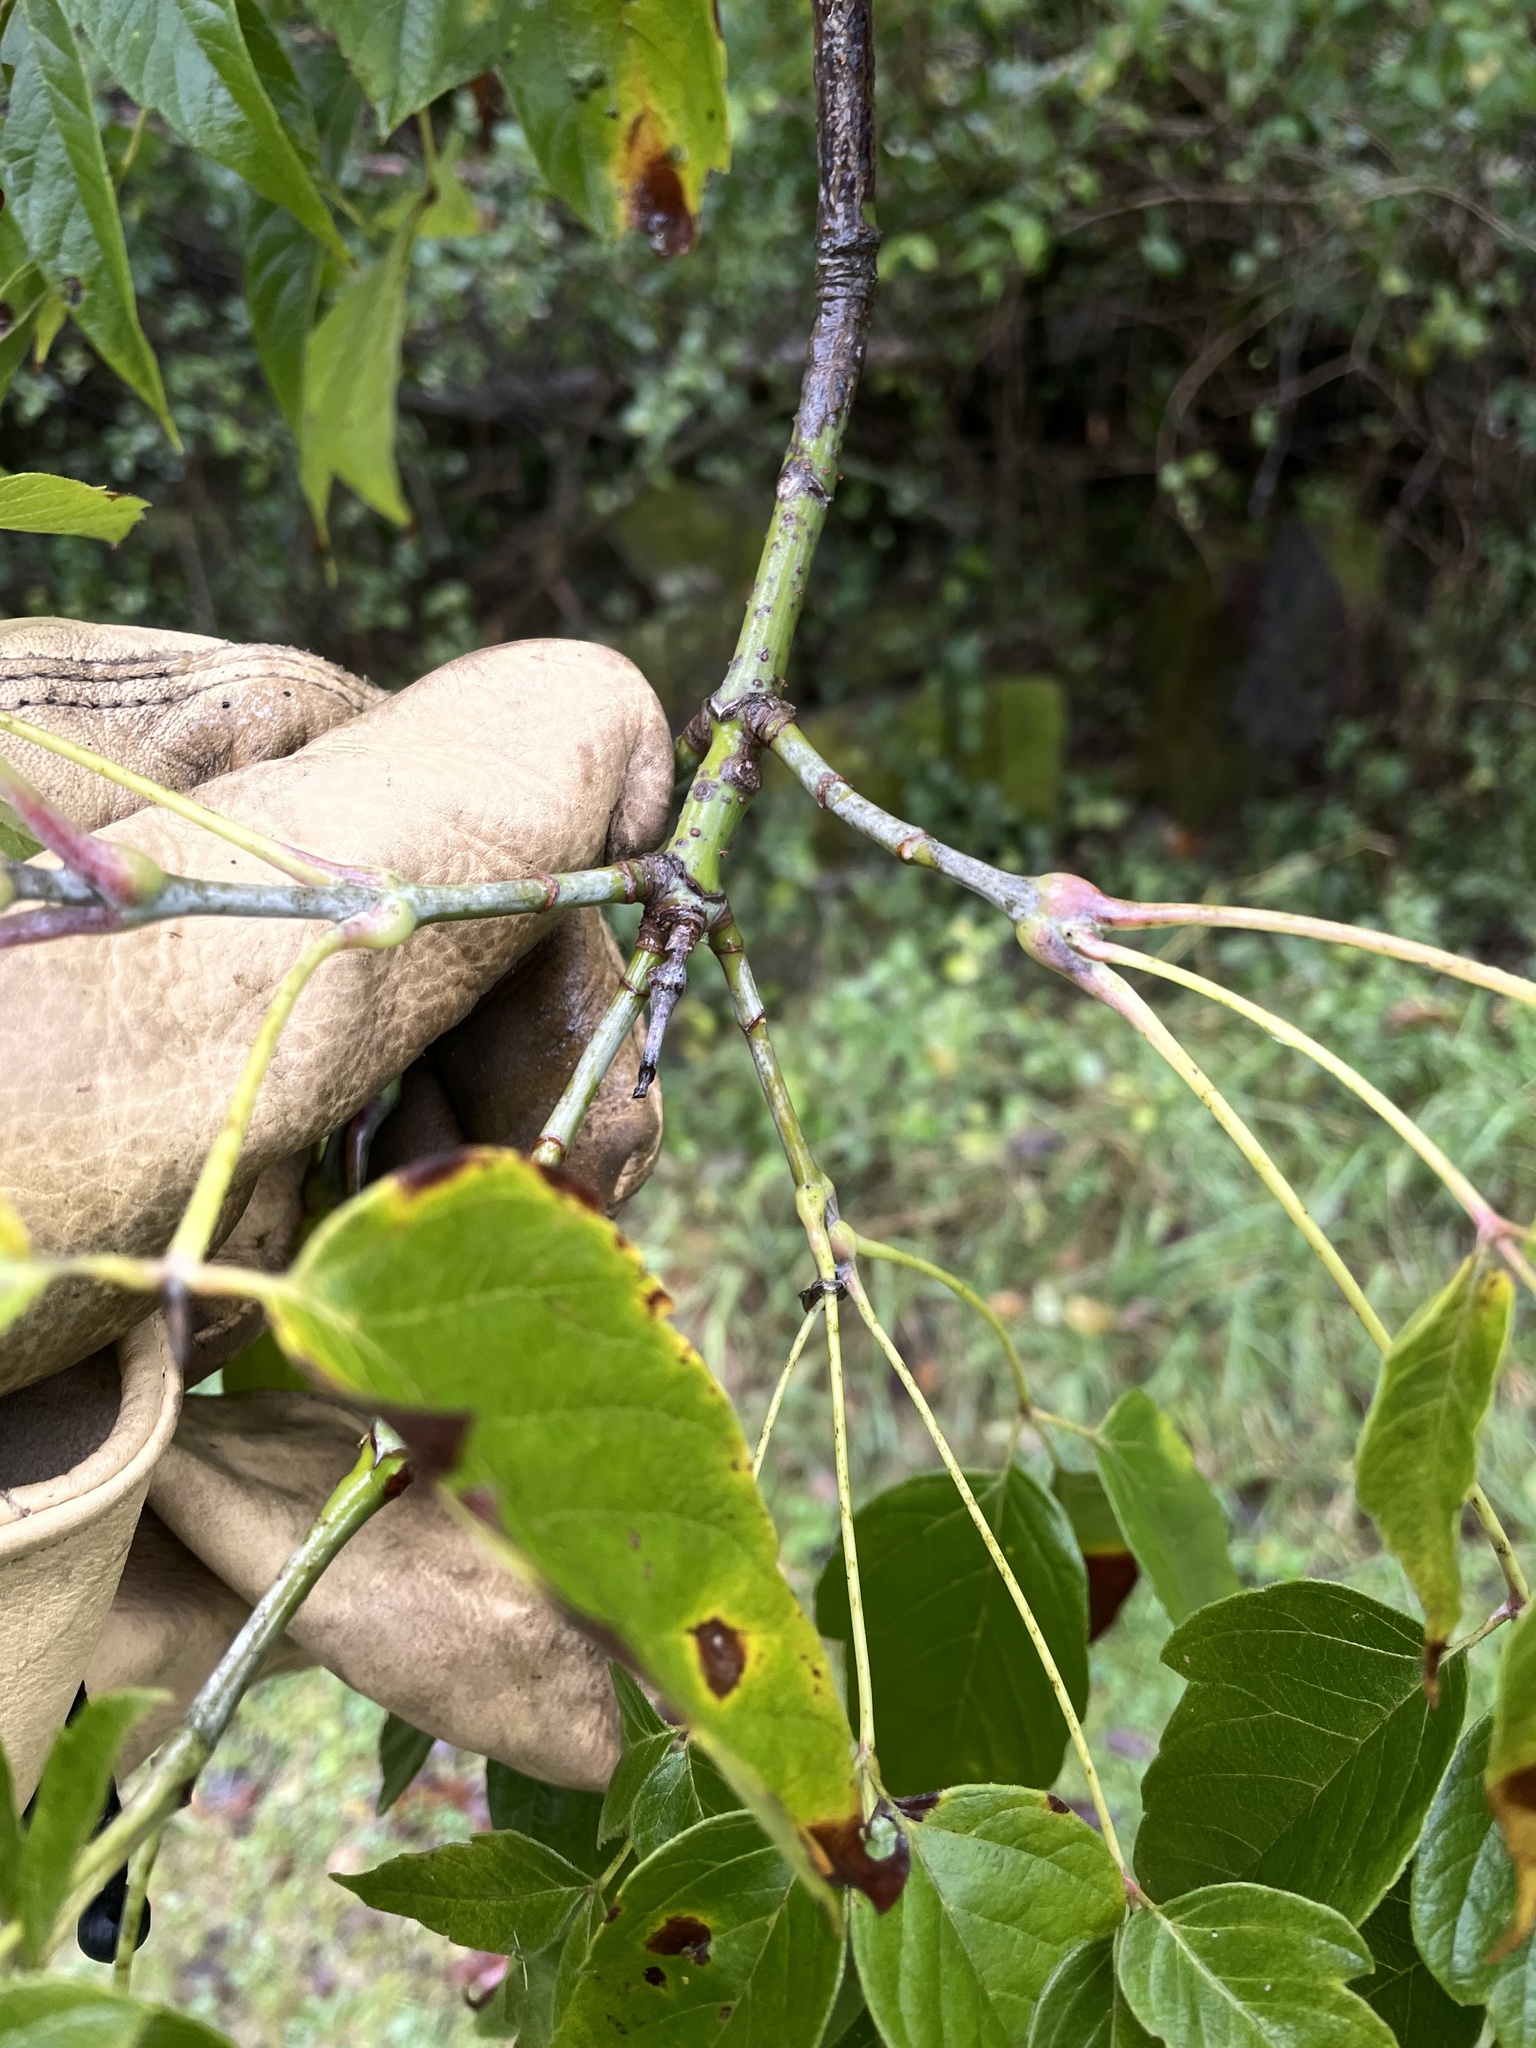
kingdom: Plantae
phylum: Tracheophyta
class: Magnoliopsida
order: Sapindales
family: Sapindaceae
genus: Acer
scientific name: Acer negundo
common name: Ashleaf maple
